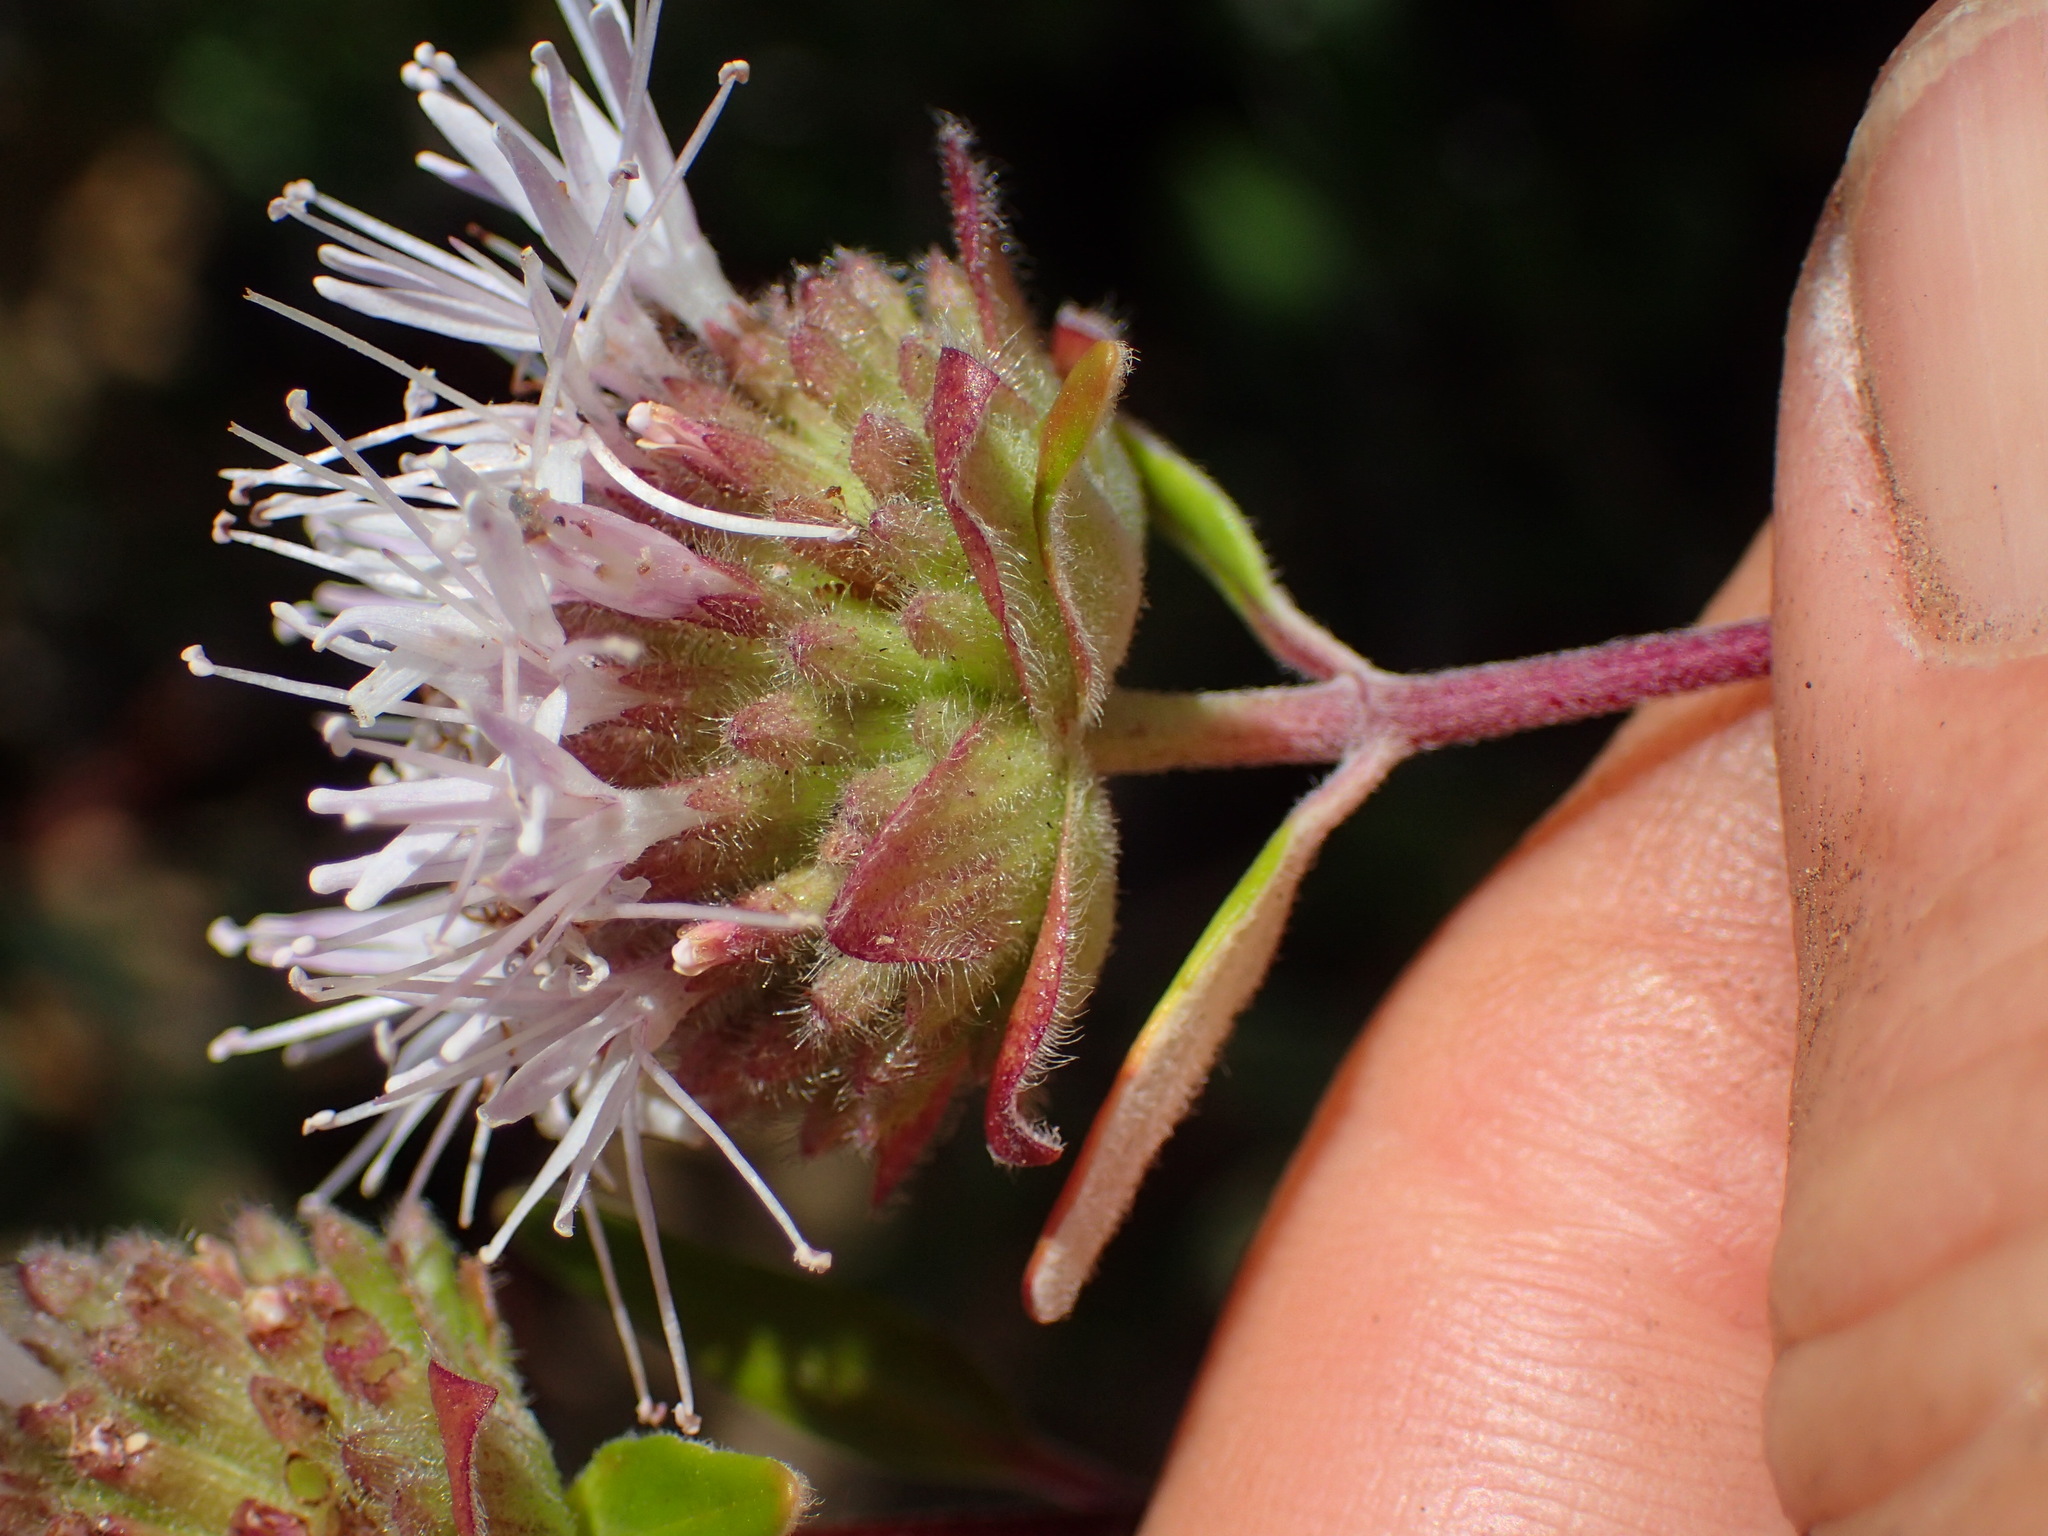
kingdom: Plantae
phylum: Tracheophyta
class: Magnoliopsida
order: Lamiales
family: Lamiaceae
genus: Monardella
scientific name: Monardella hypoleuca
